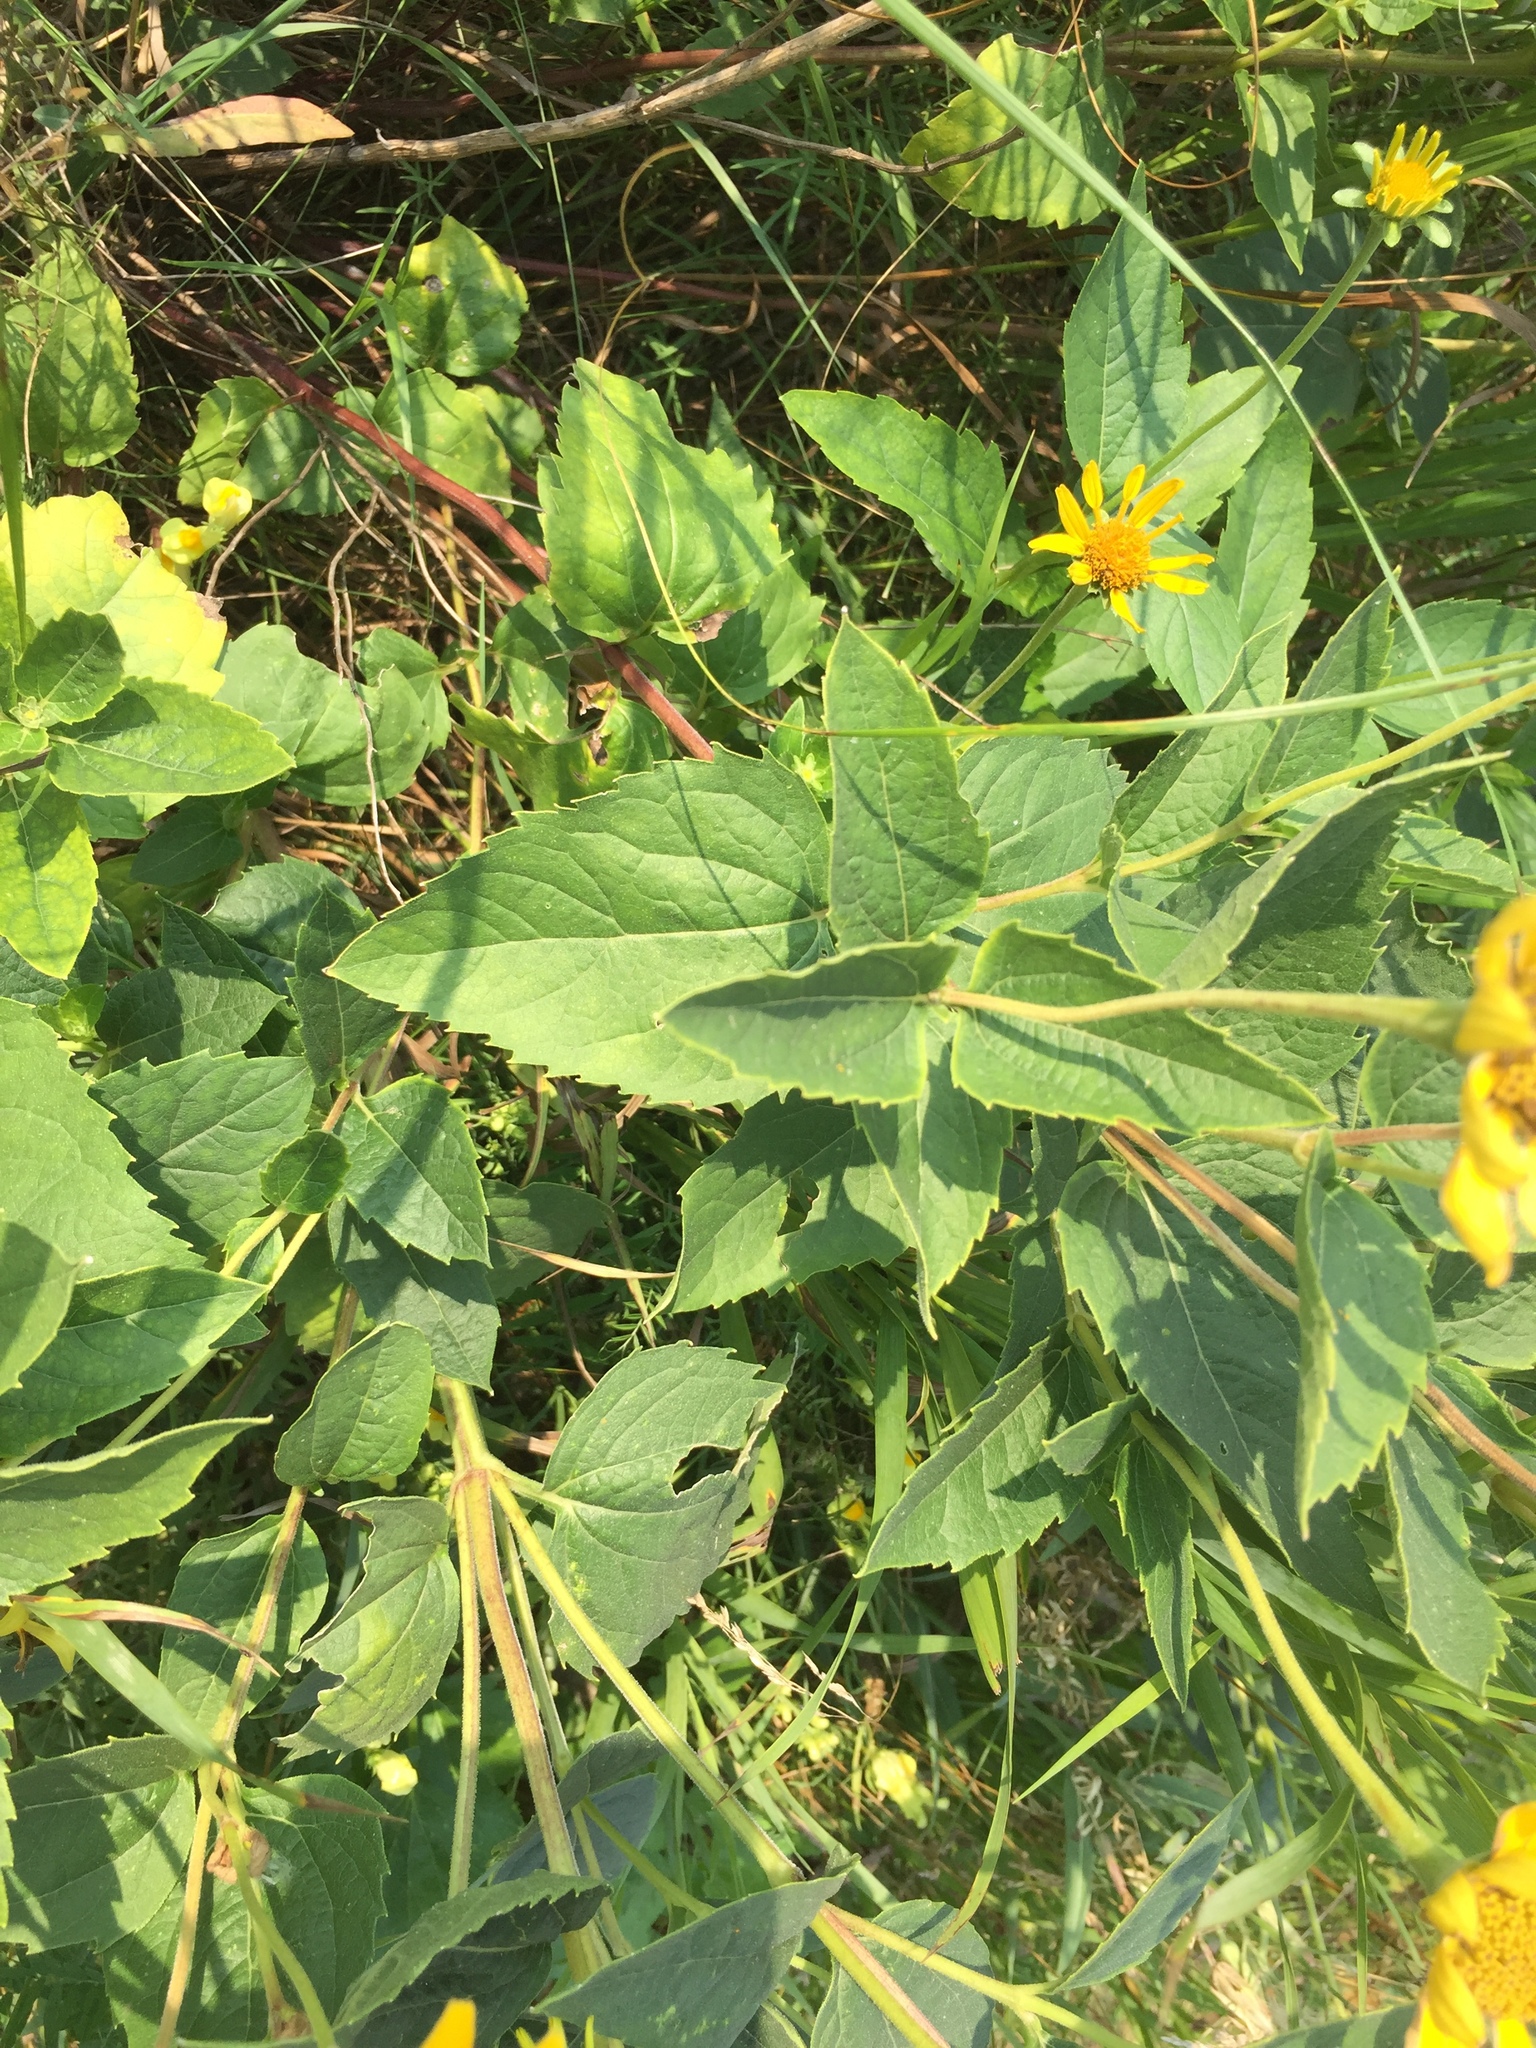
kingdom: Plantae
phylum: Tracheophyta
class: Magnoliopsida
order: Asterales
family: Asteraceae
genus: Heliopsis
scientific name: Heliopsis helianthoides
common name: False sunflower
